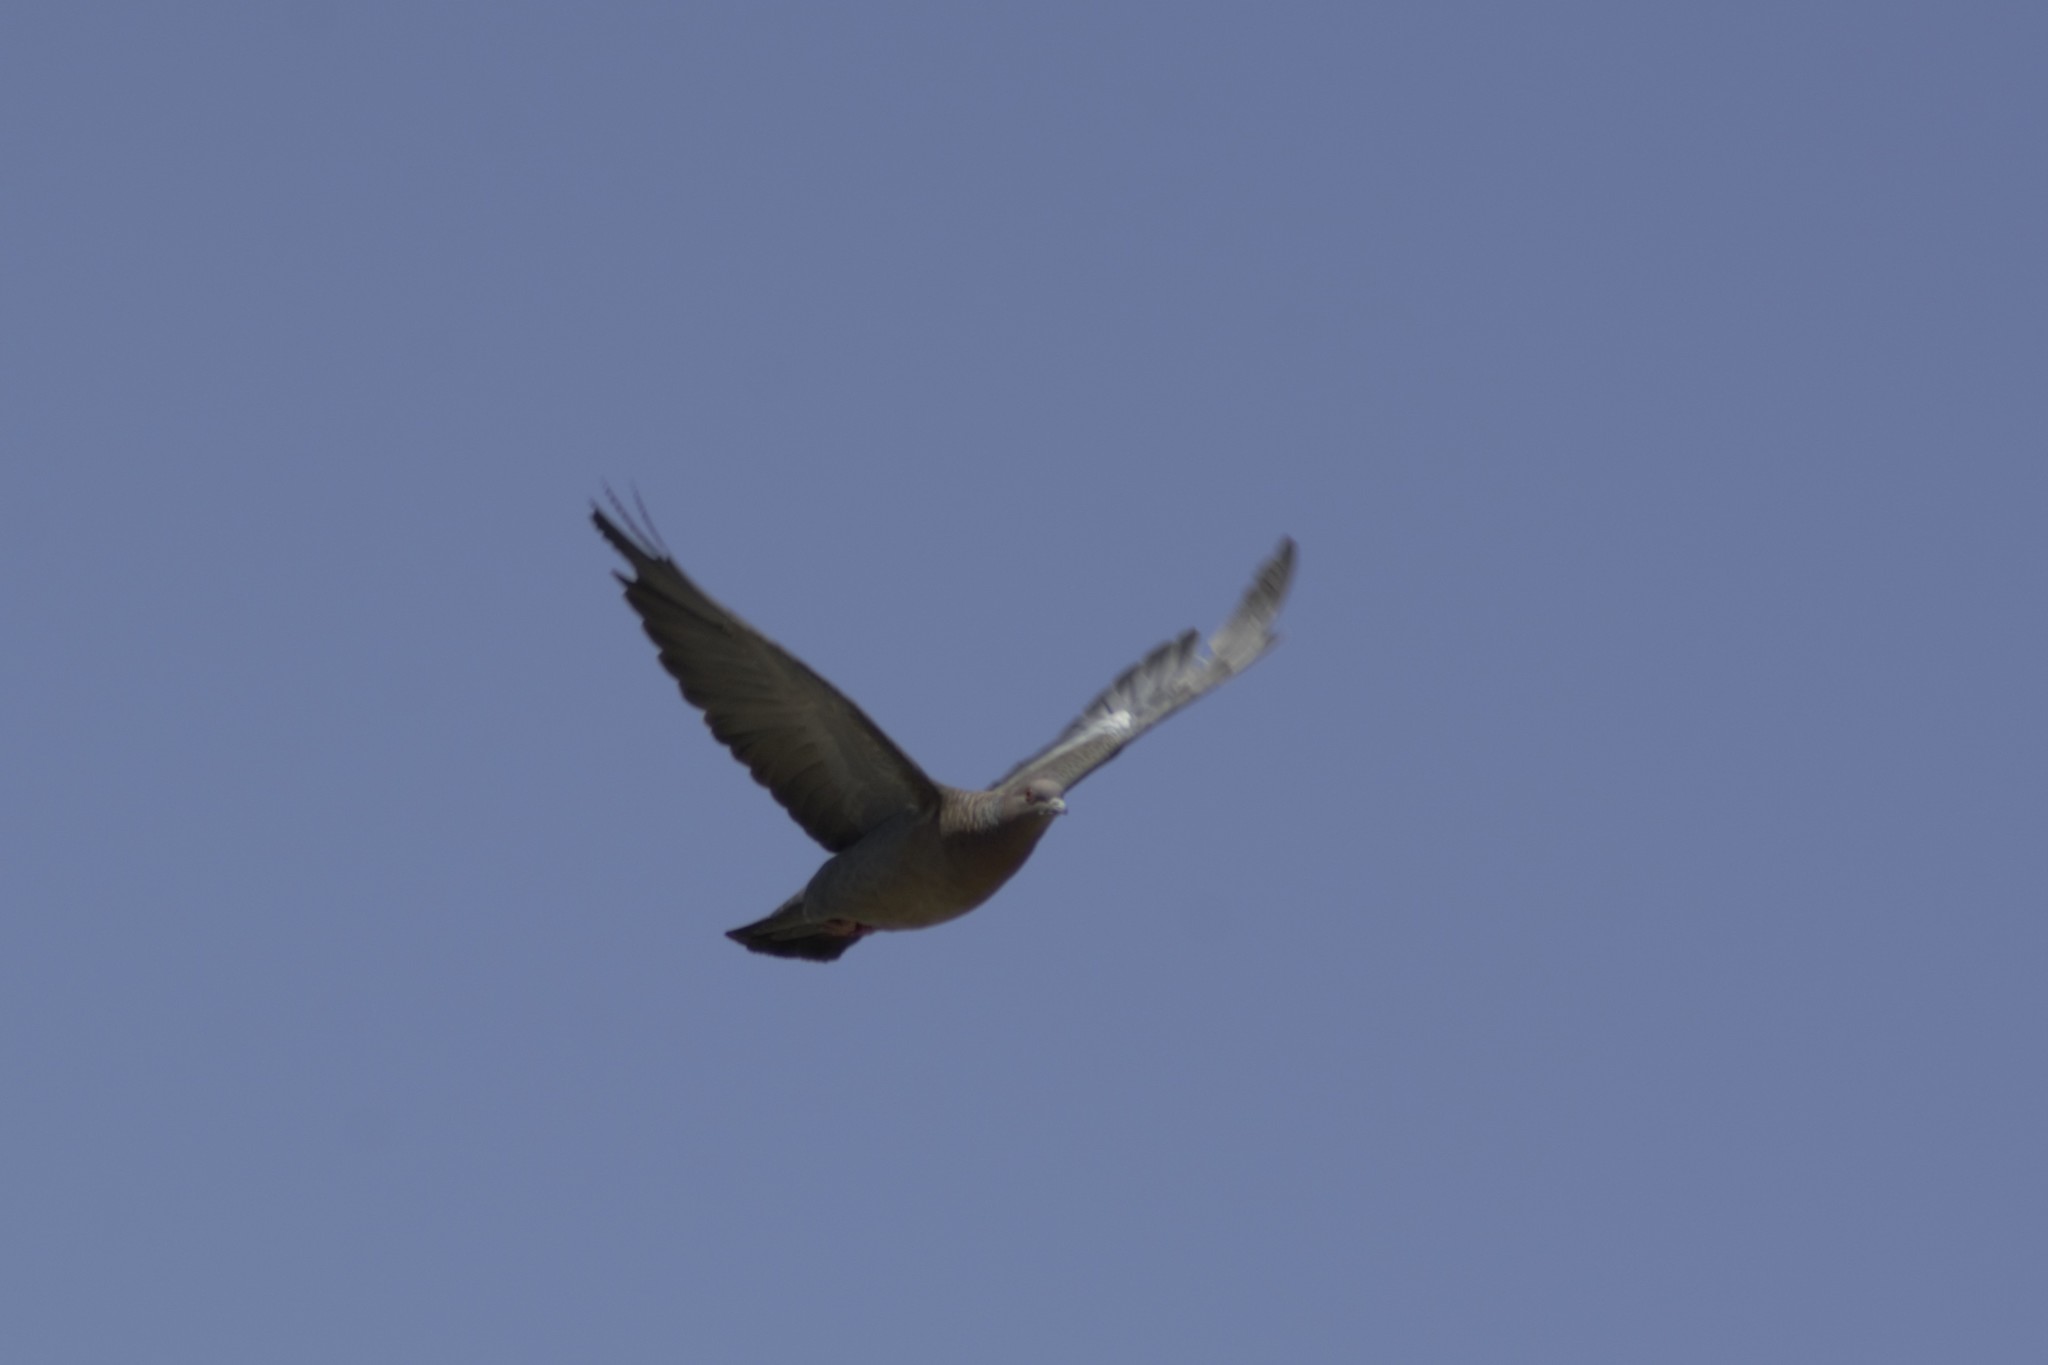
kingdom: Animalia
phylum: Chordata
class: Aves
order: Columbiformes
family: Columbidae
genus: Patagioenas
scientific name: Patagioenas picazuro
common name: Picazuro pigeon
